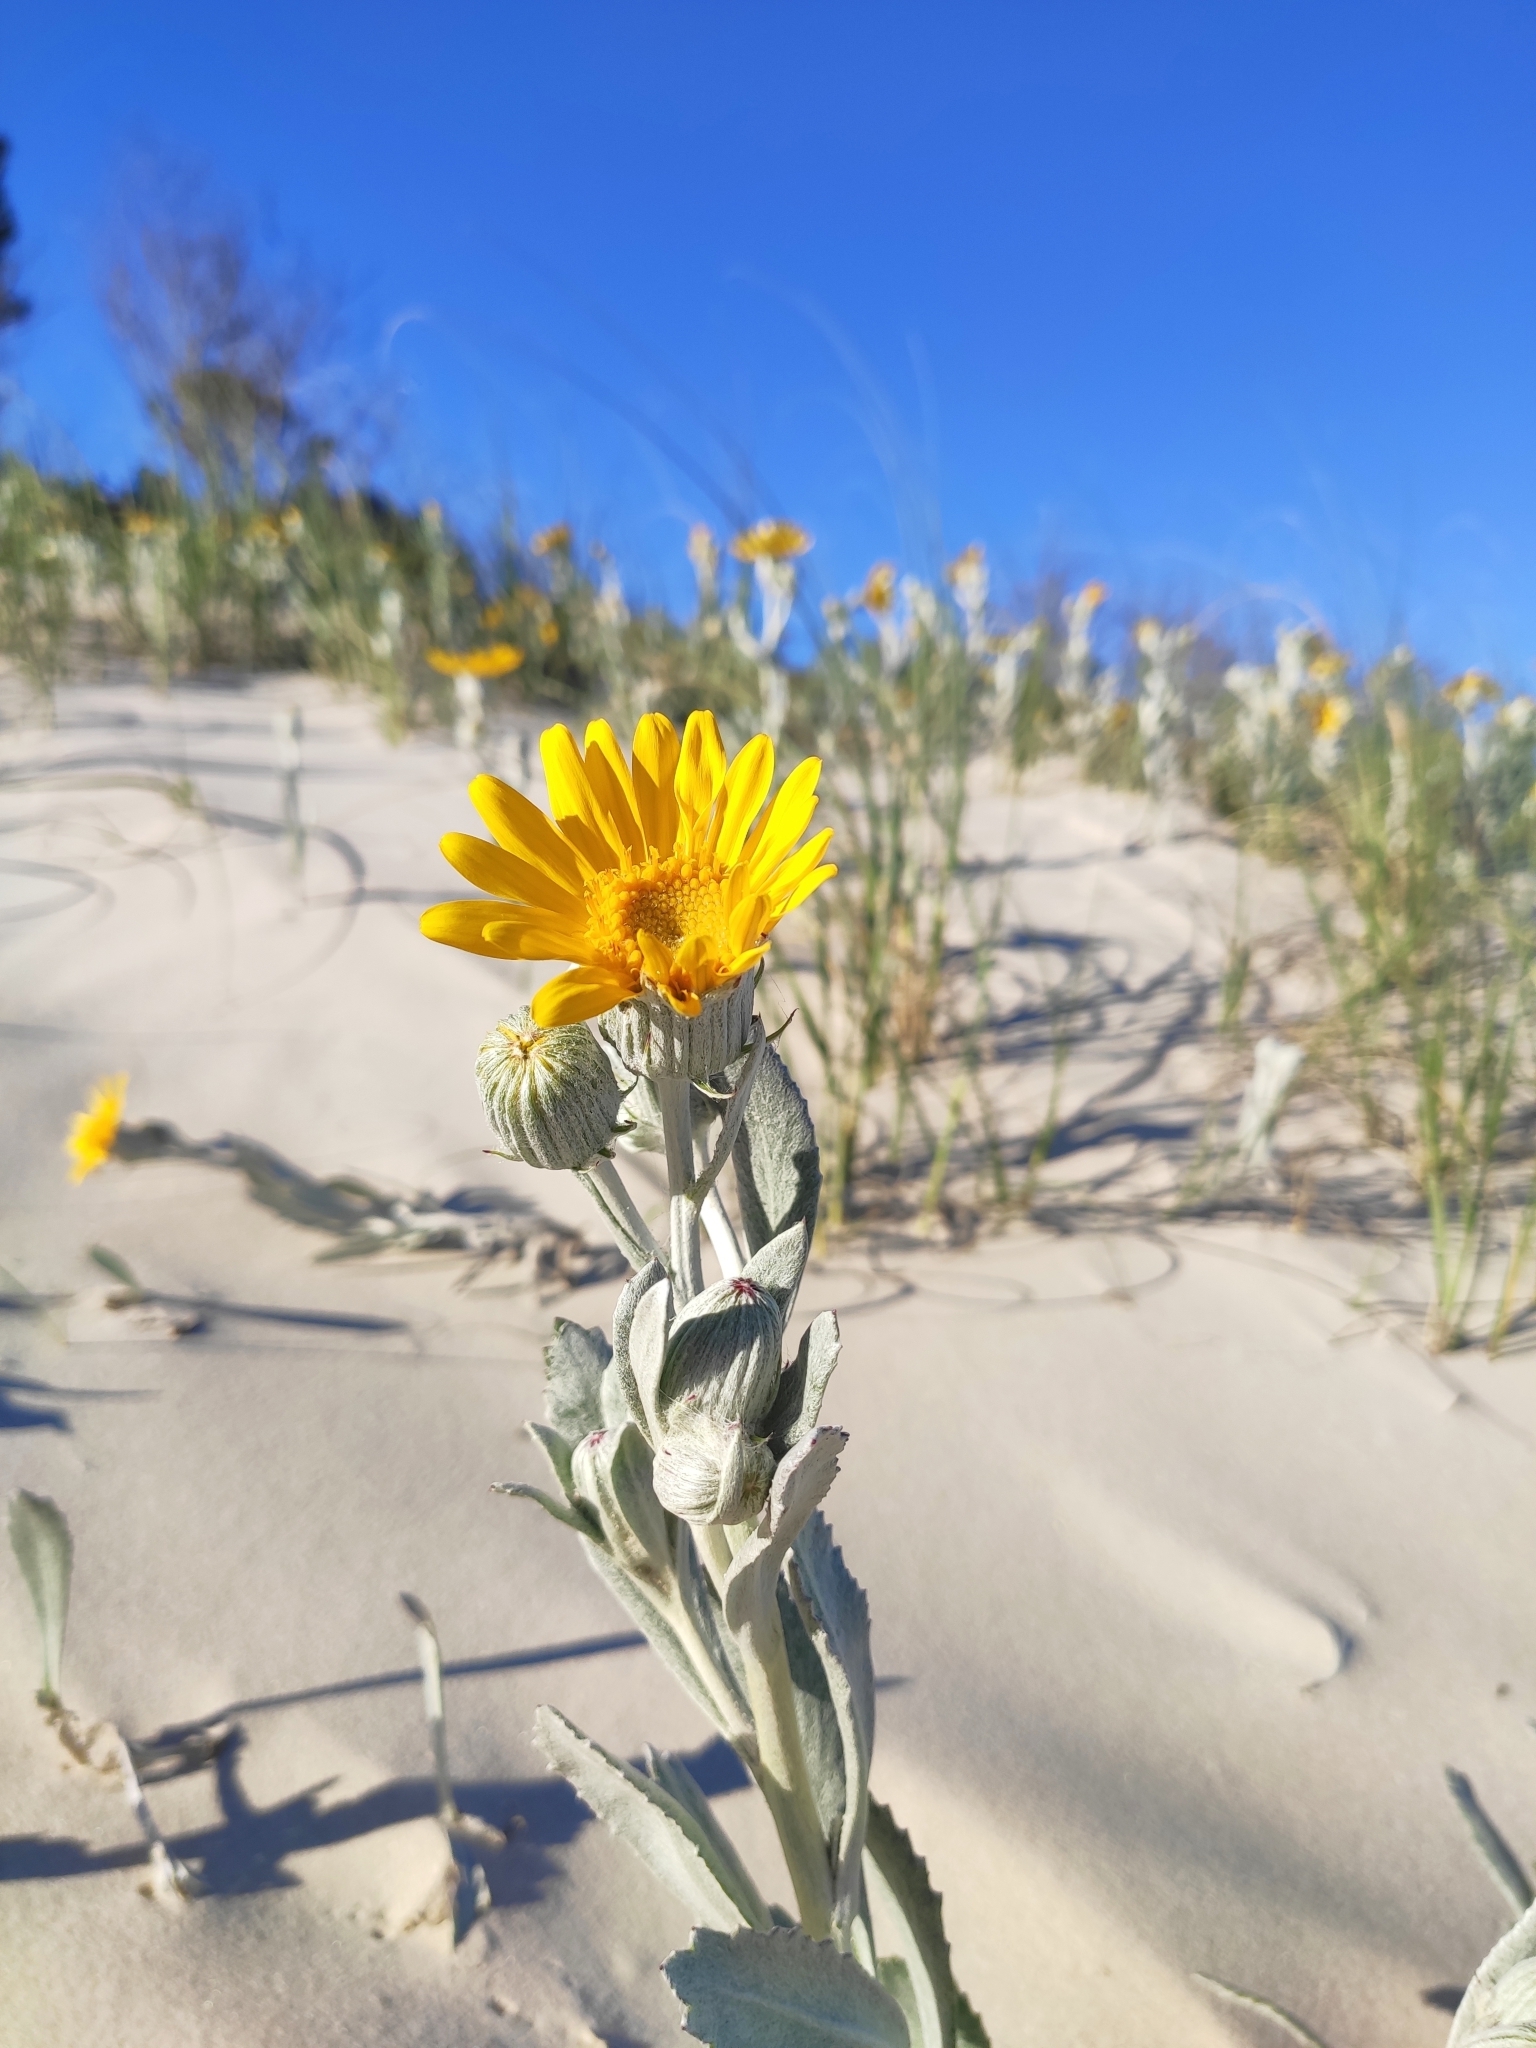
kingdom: Plantae
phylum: Tracheophyta
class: Magnoliopsida
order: Asterales
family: Asteraceae
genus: Senecio
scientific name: Senecio crassiflorus
